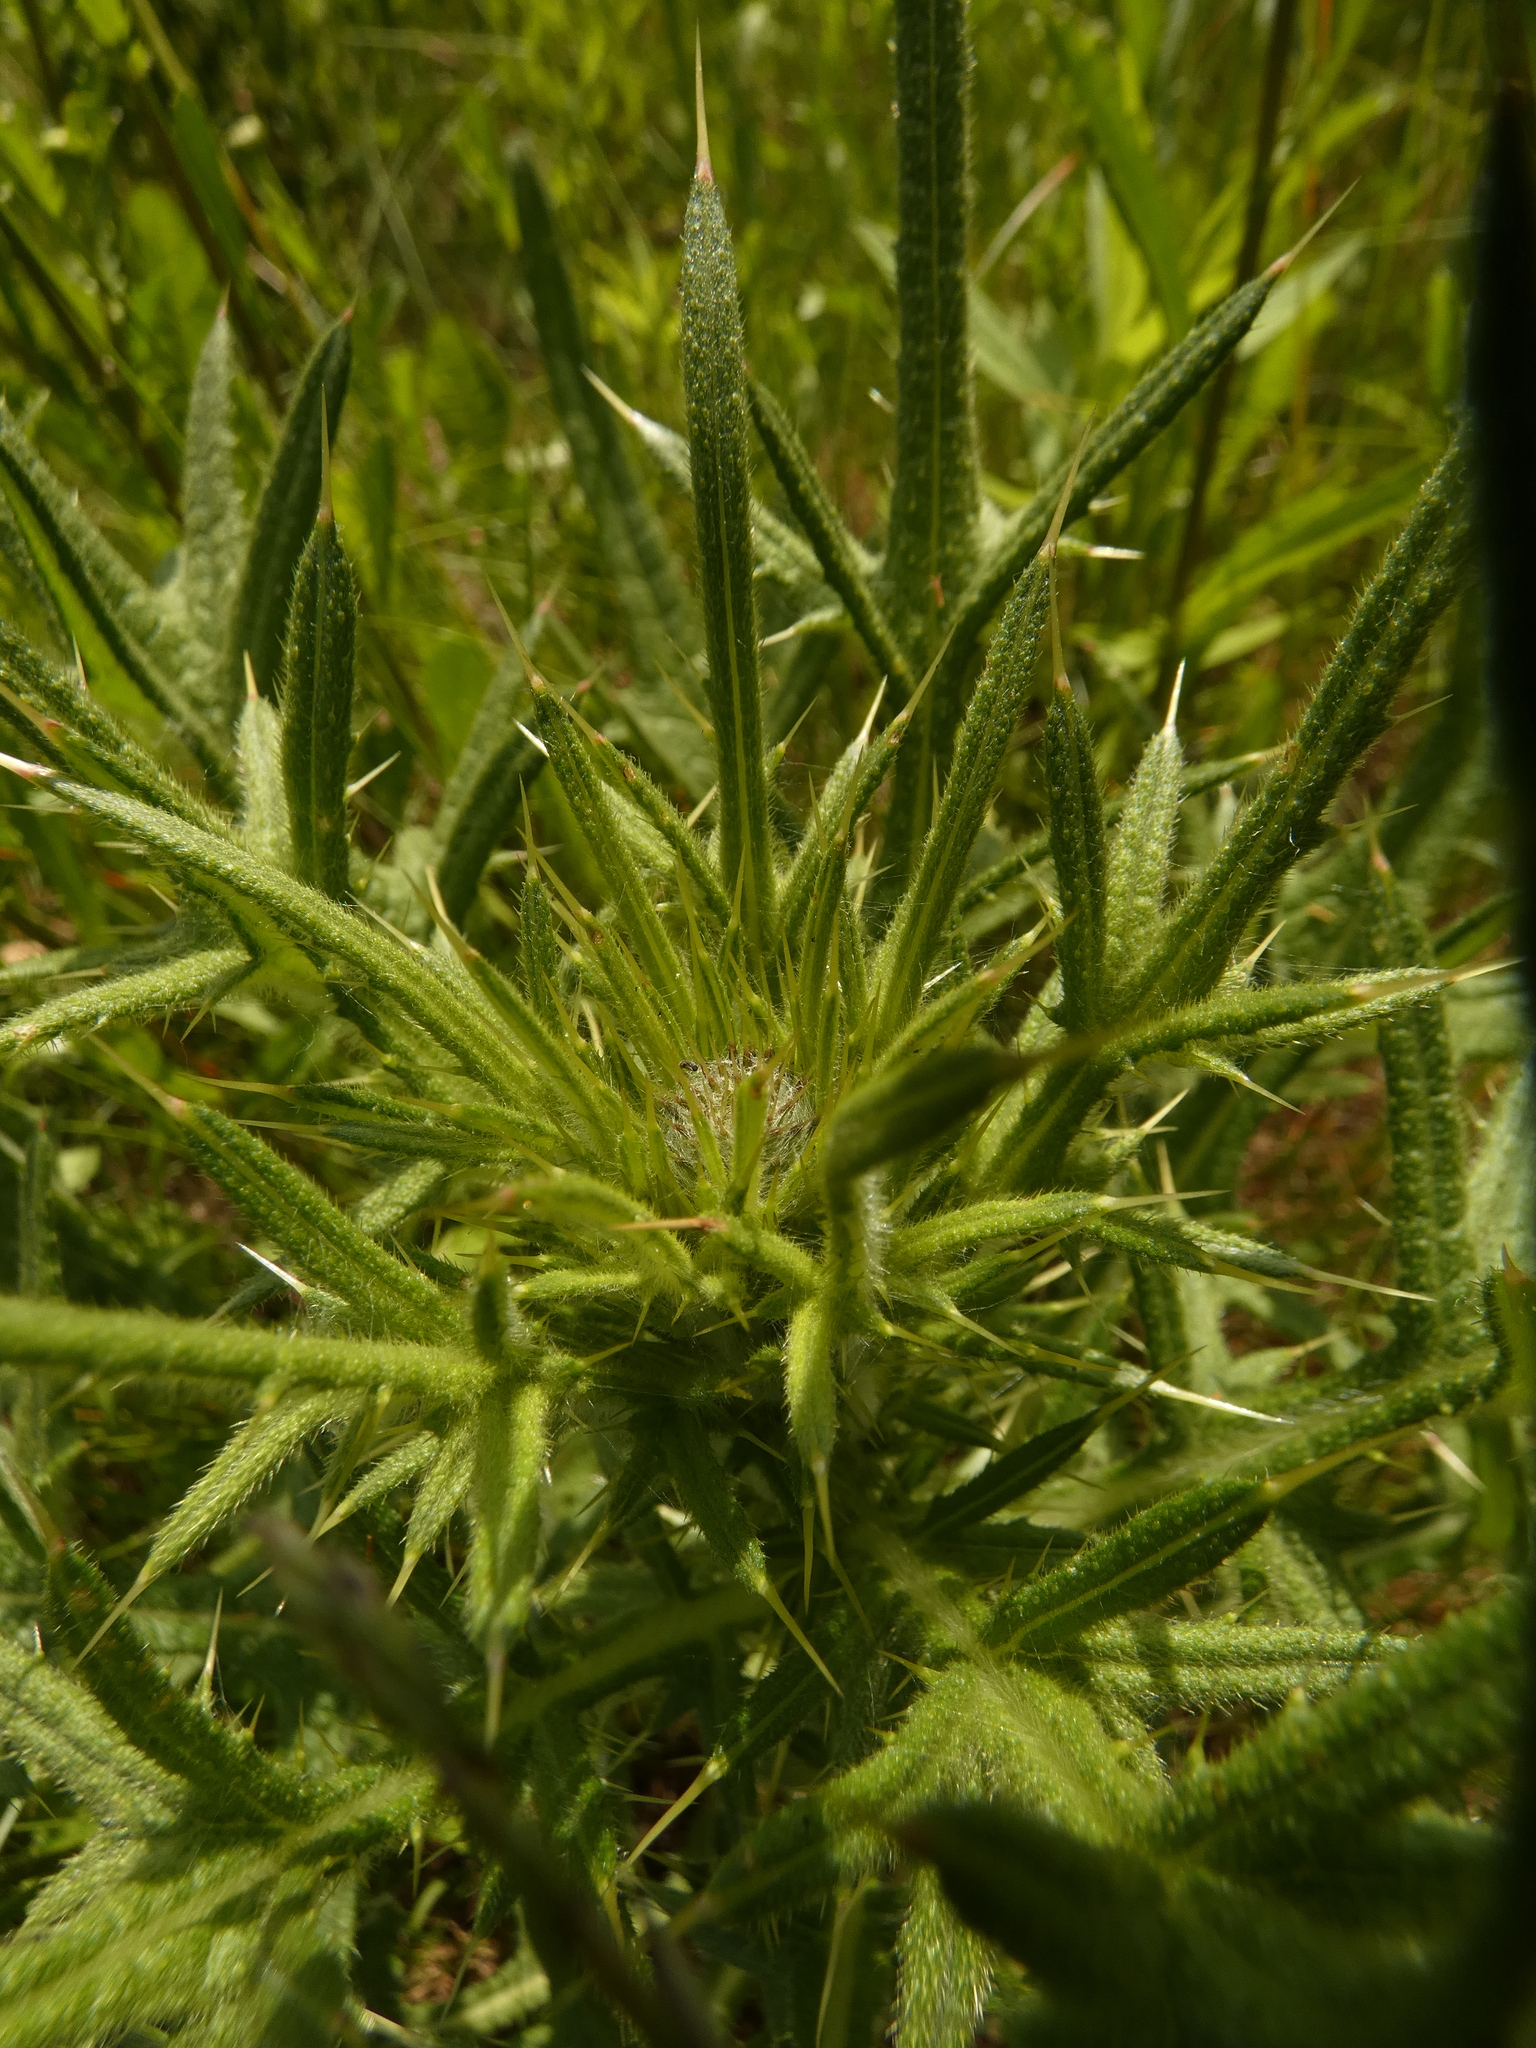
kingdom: Plantae
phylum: Tracheophyta
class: Magnoliopsida
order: Asterales
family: Asteraceae
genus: Cirsium
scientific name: Cirsium vulgare
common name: Bull thistle
